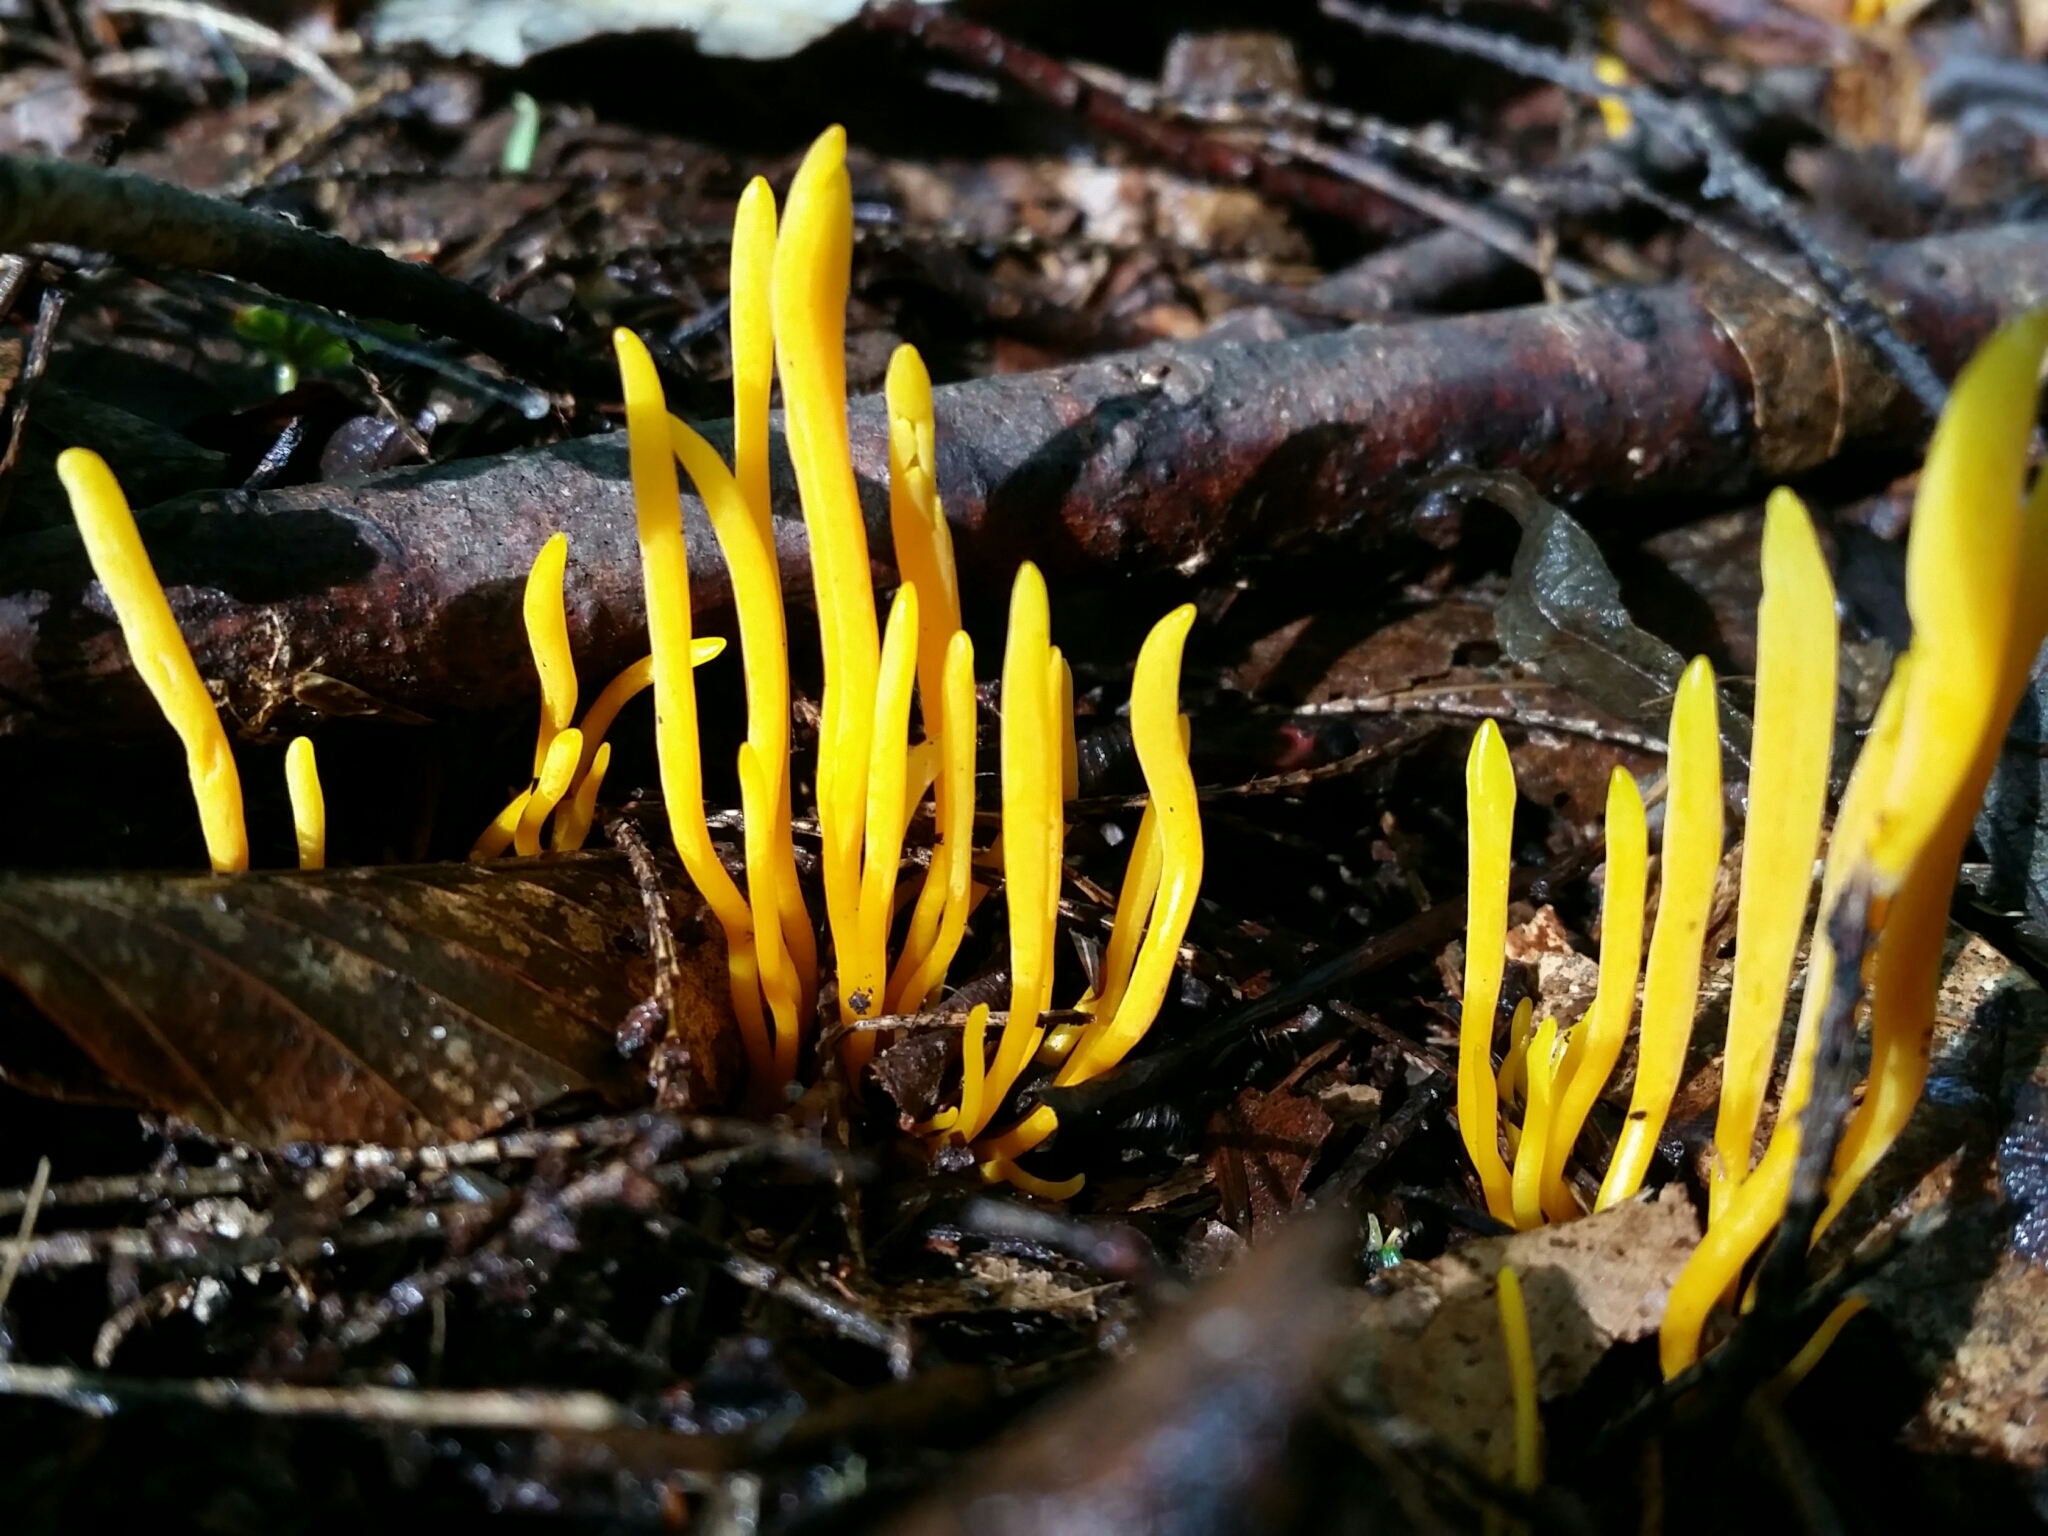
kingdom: Fungi
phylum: Basidiomycota
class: Agaricomycetes
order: Agaricales
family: Clavariaceae
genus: Clavulinopsis
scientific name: Clavulinopsis fusiformis
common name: Golden spindles
